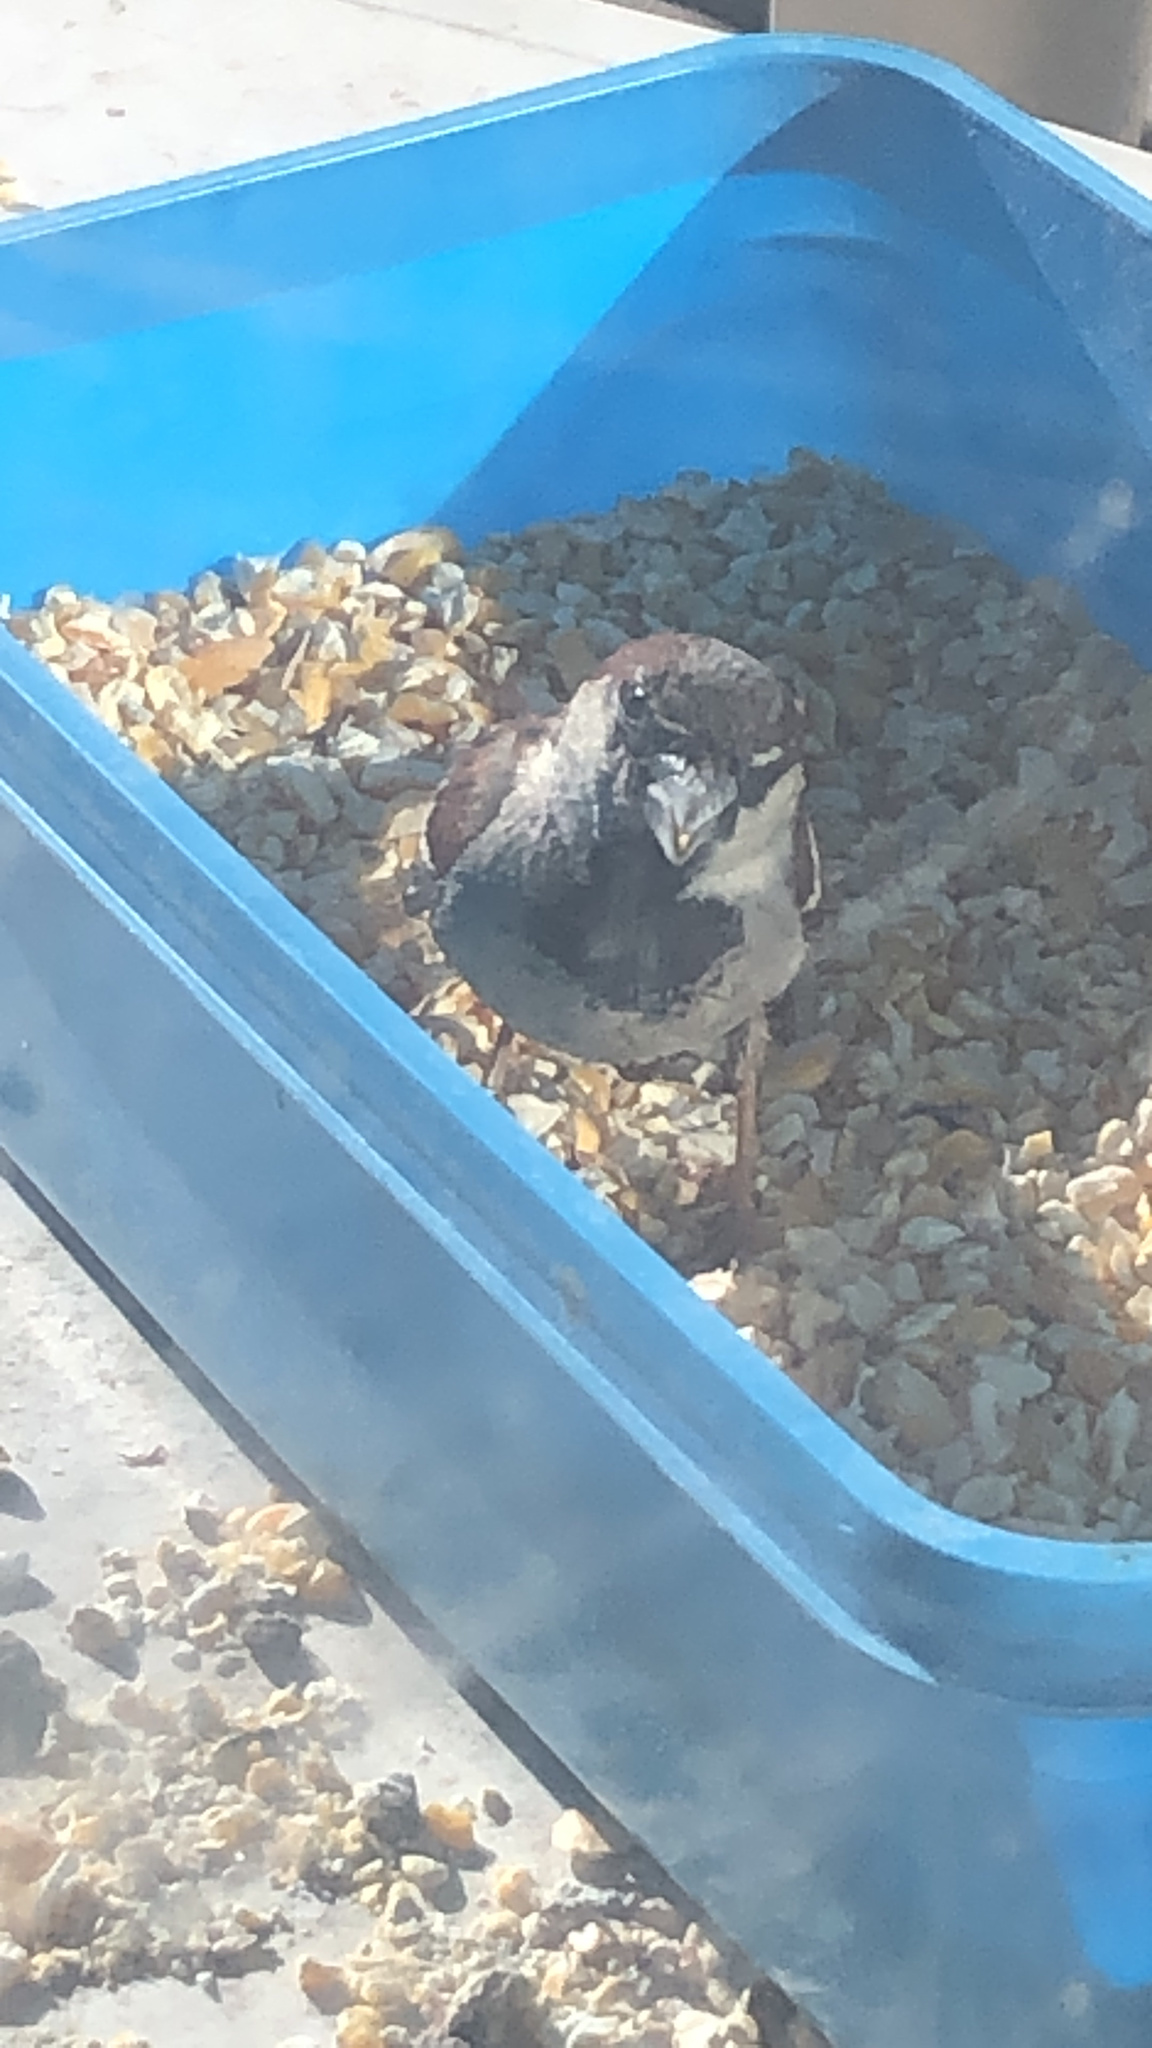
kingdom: Animalia
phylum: Chordata
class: Aves
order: Passeriformes
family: Passeridae
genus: Passer
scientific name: Passer domesticus
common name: House sparrow
